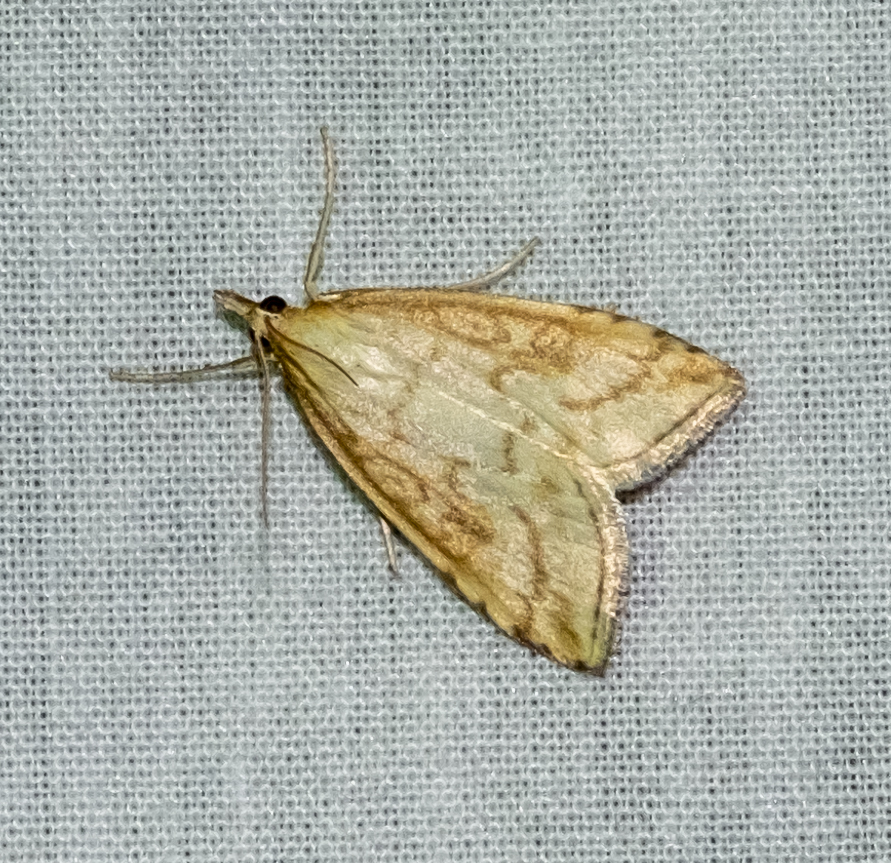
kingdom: Animalia
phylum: Arthropoda
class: Insecta
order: Lepidoptera
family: Crambidae
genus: Evergestis
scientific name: Evergestis pallidata
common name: Chequered pearl
